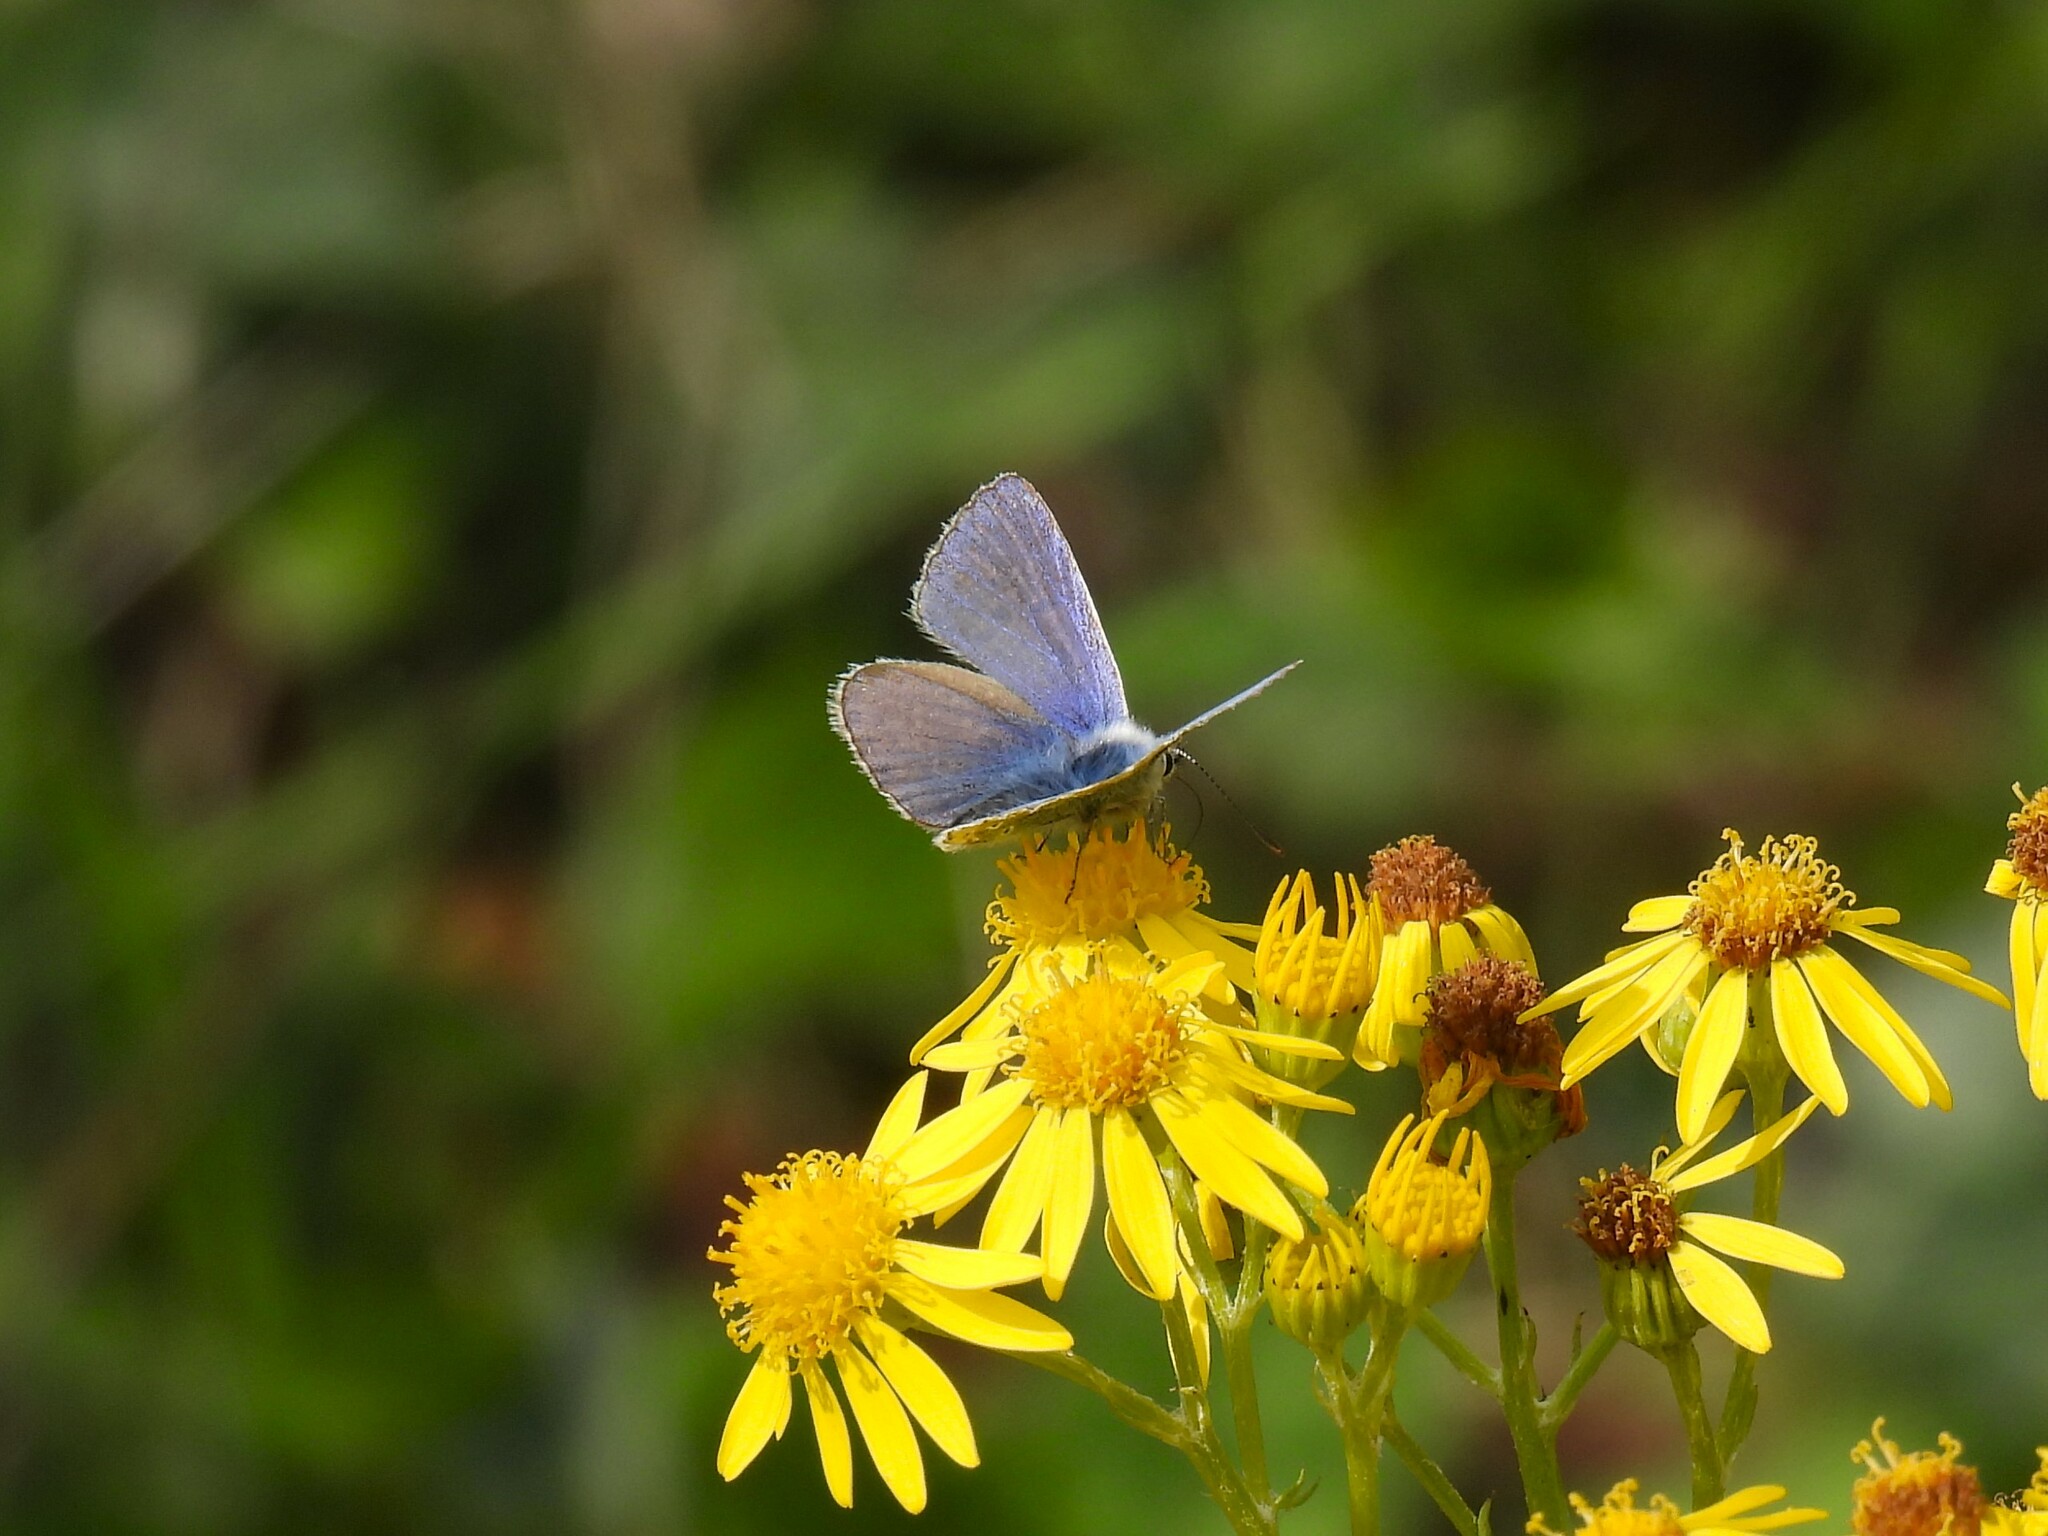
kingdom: Animalia
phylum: Arthropoda
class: Insecta
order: Lepidoptera
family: Lycaenidae
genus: Polyommatus
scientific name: Polyommatus icarus
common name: Common blue
